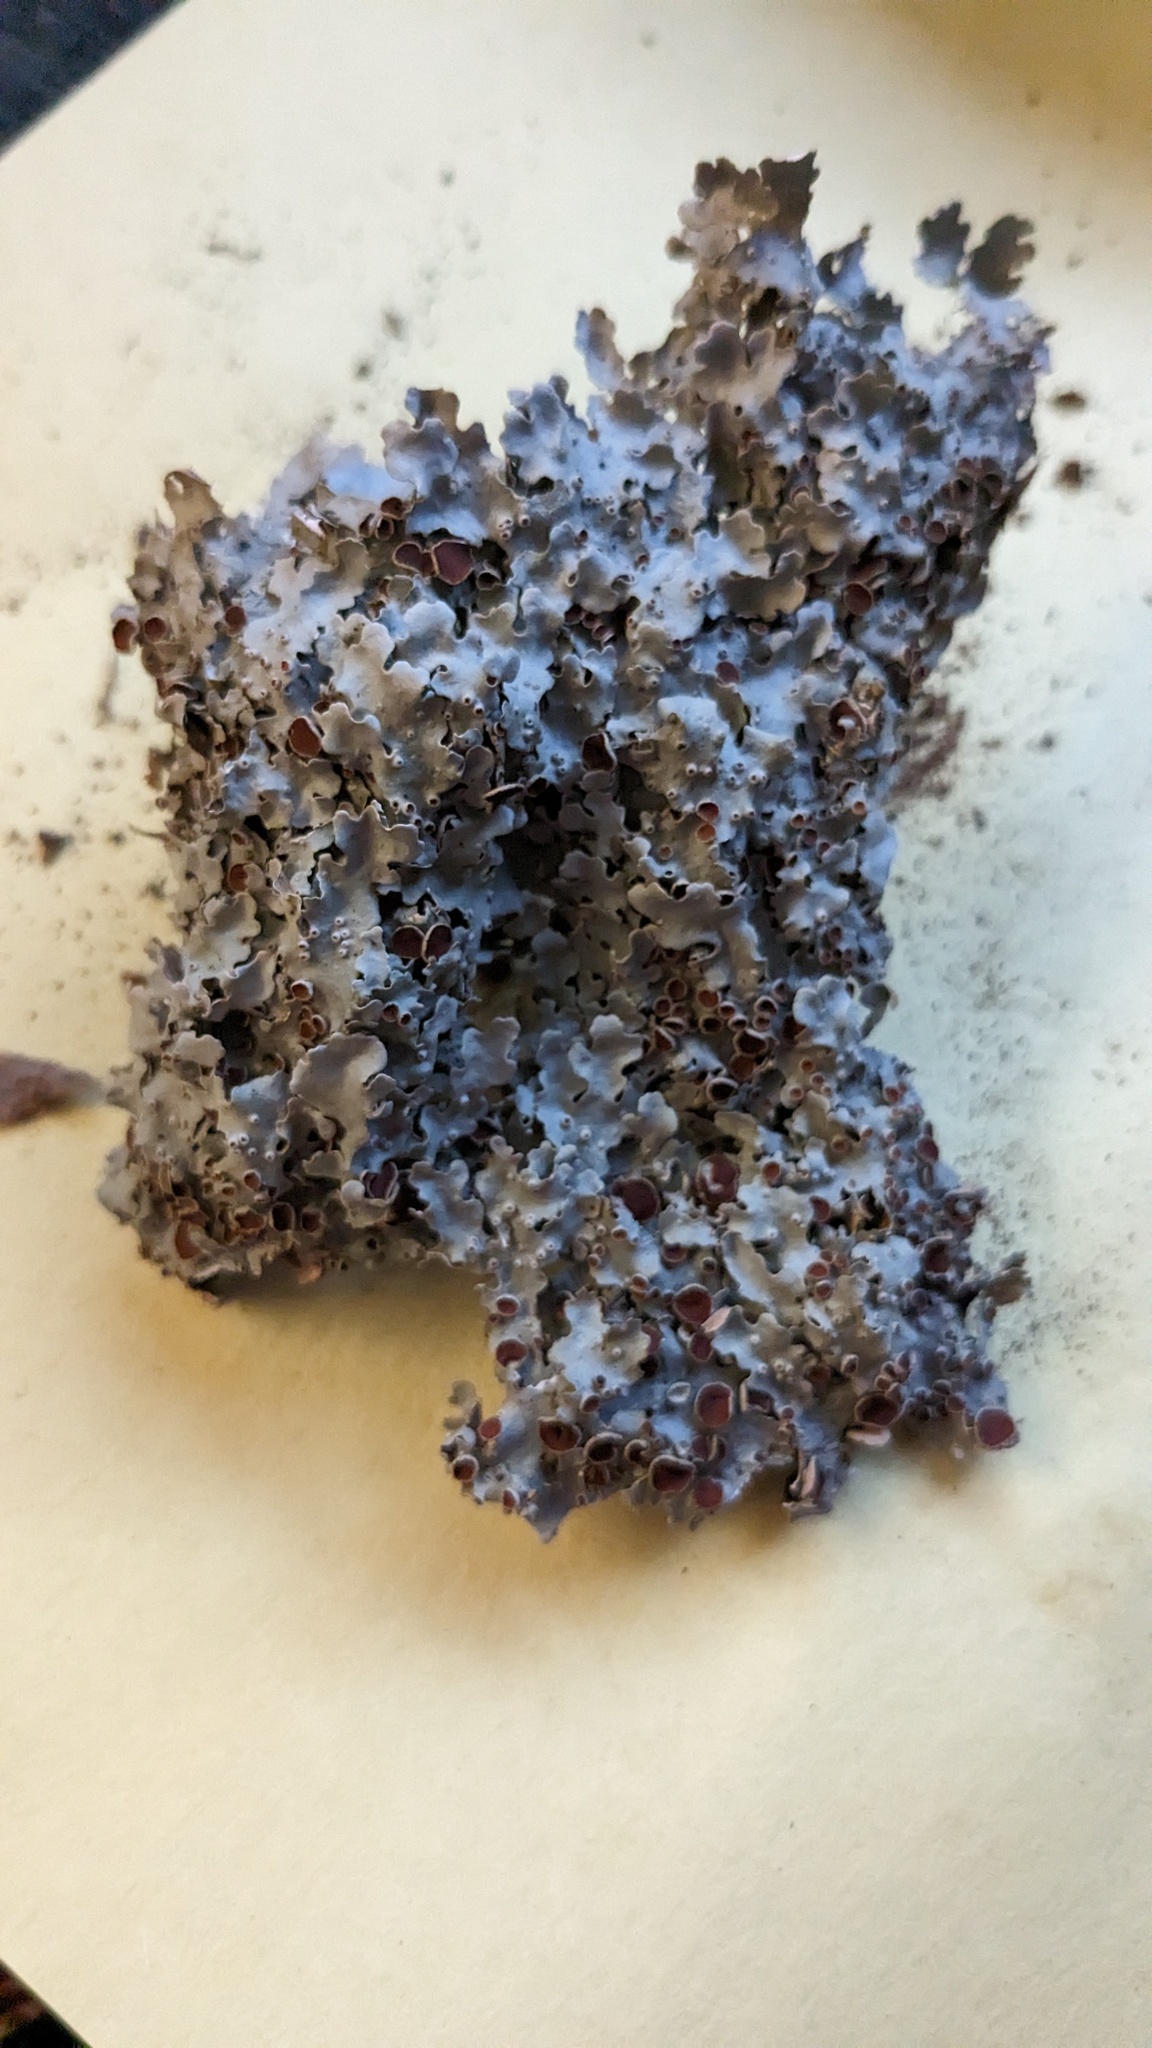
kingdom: Fungi
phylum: Ascomycota
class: Lecanoromycetes
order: Peltigerales
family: Lobariaceae
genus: Ricasolia
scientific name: Ricasolia quercizans
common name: Smooth lungwort
